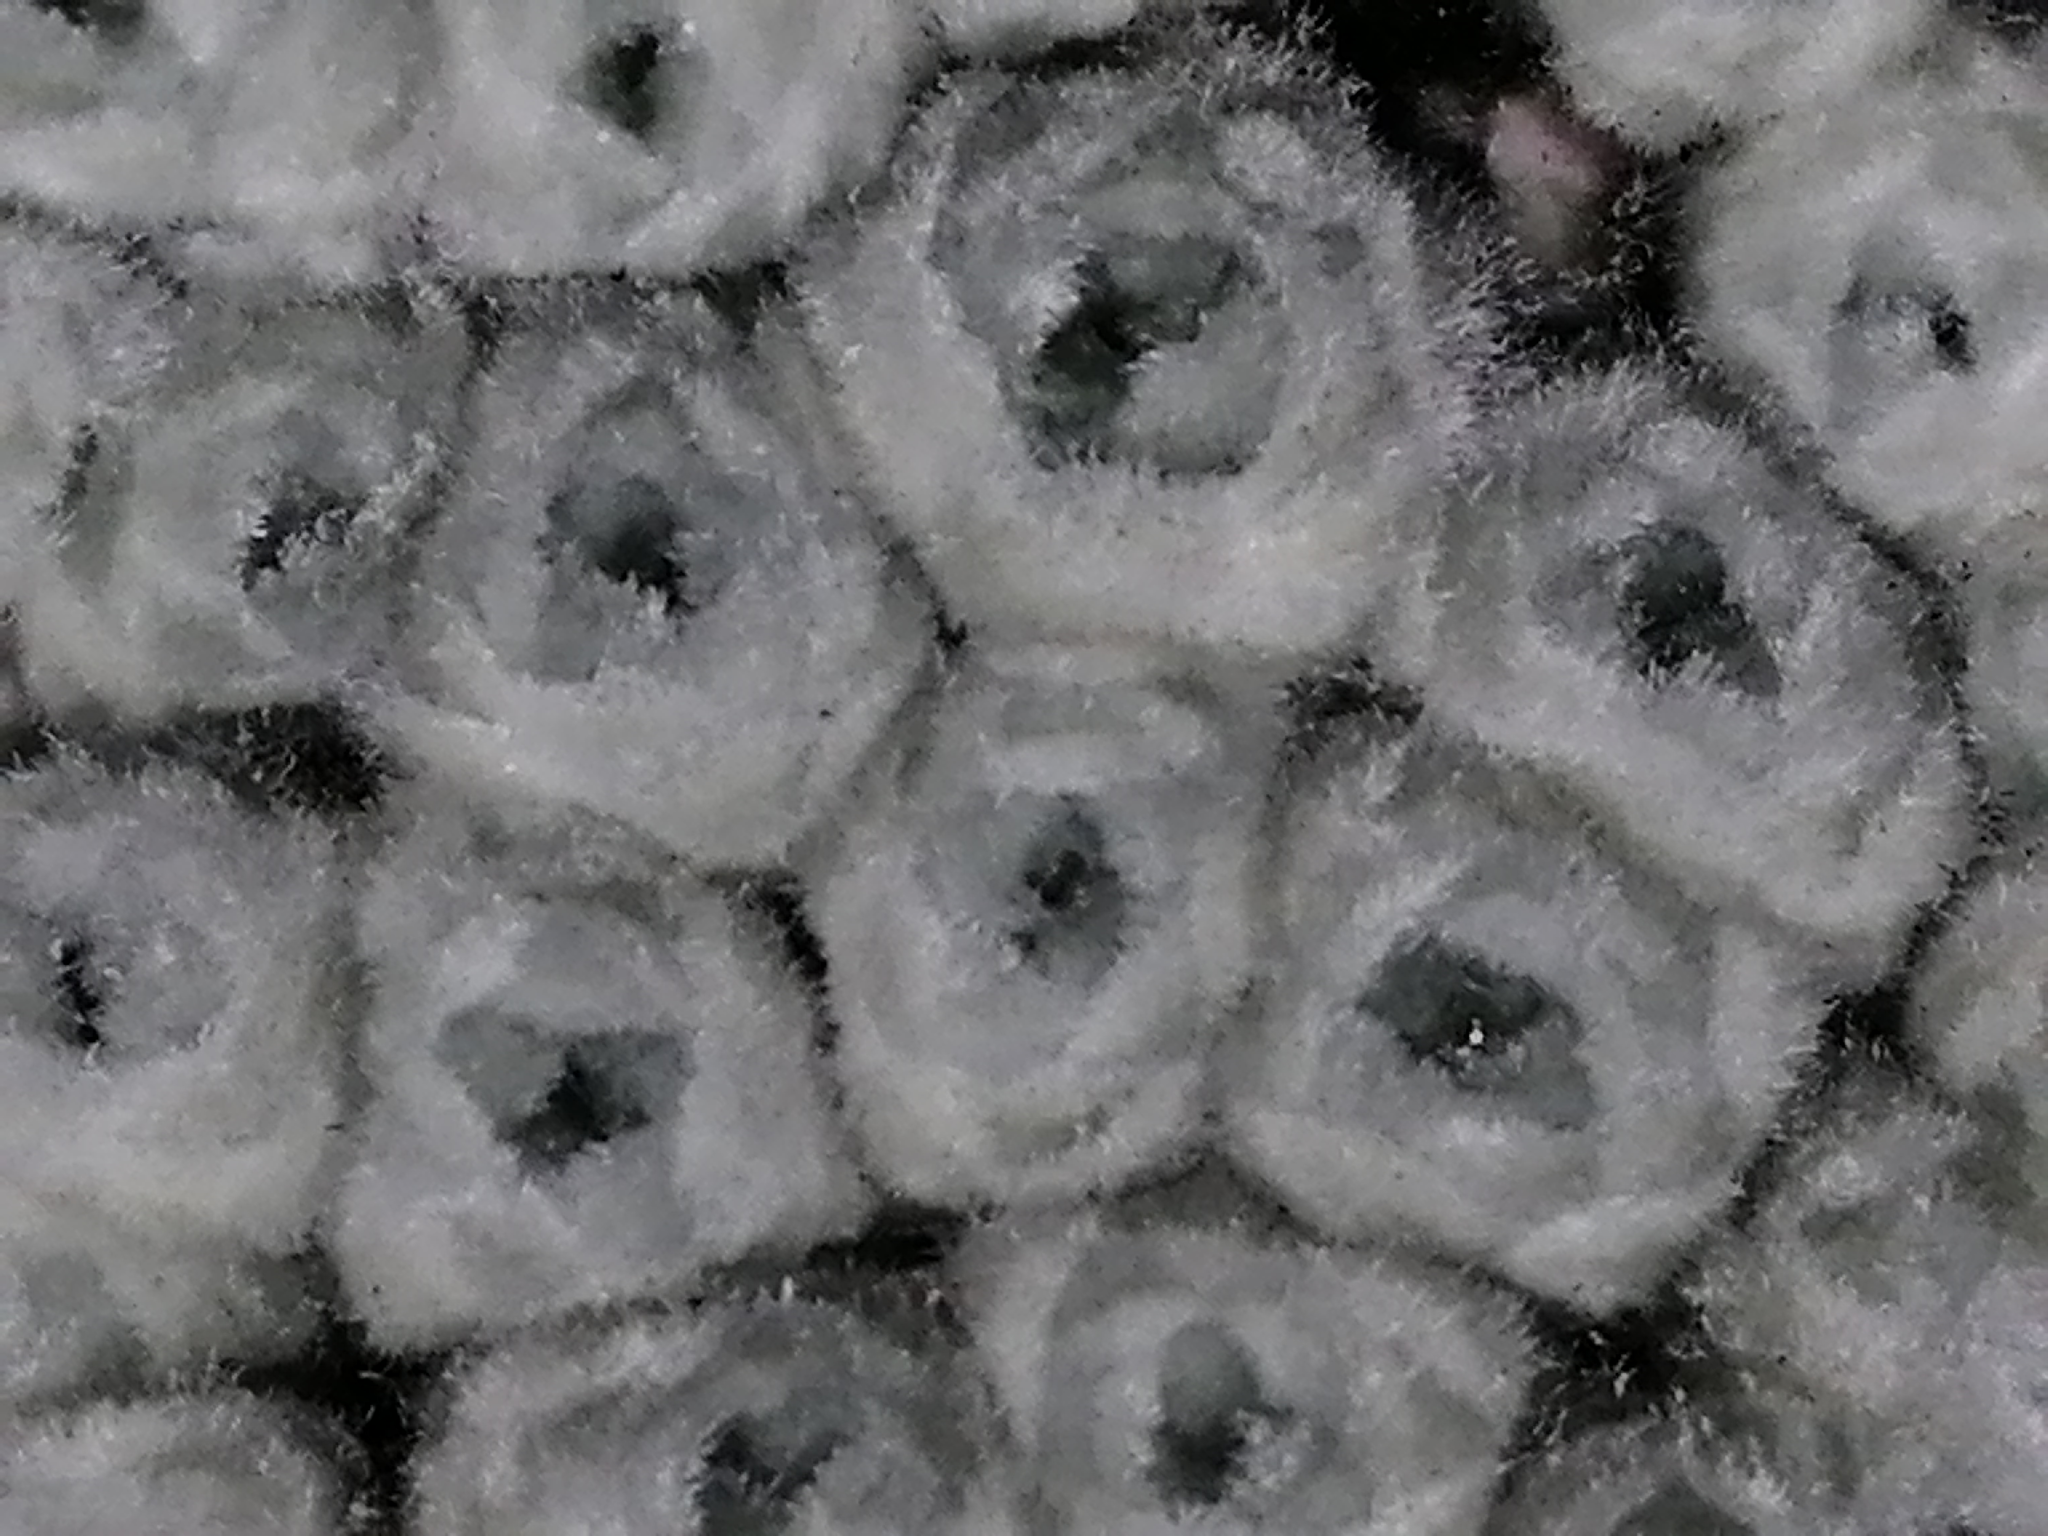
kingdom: Plantae
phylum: Tracheophyta
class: Magnoliopsida
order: Asterales
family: Asteraceae
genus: Raoulia
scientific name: Raoulia eximia
